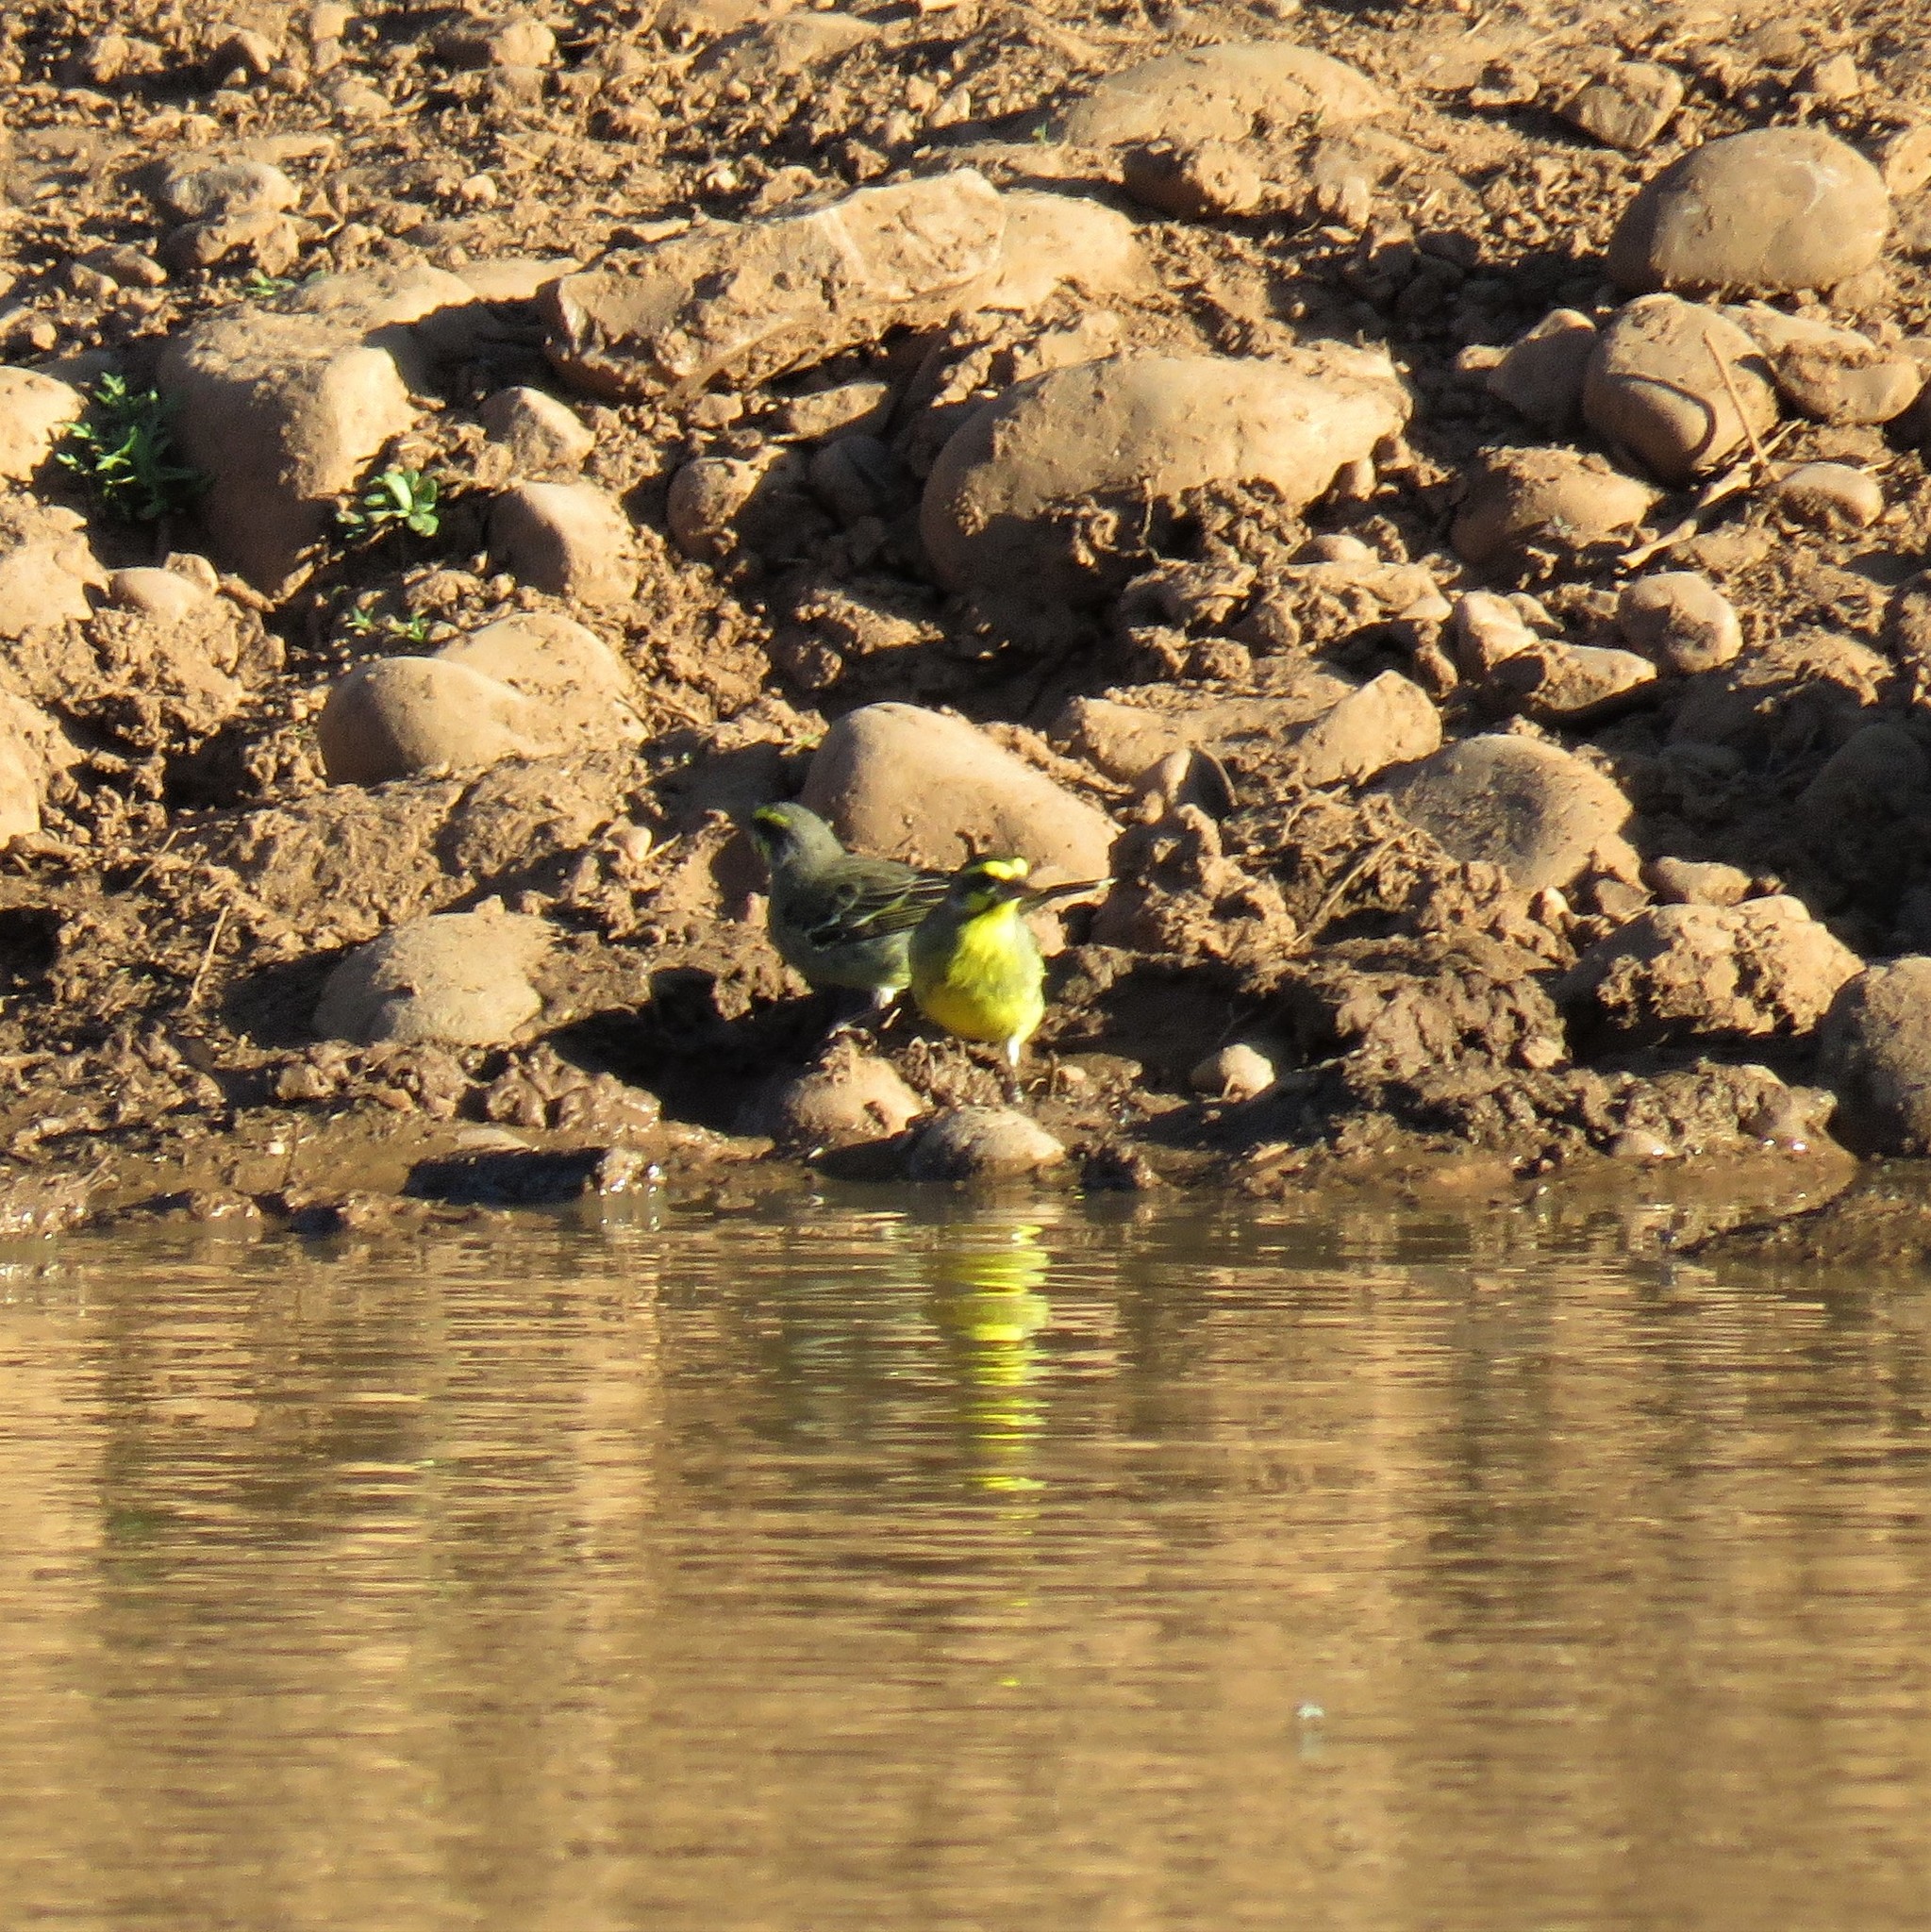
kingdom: Animalia
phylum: Chordata
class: Aves
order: Passeriformes
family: Fringillidae
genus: Crithagra
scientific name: Crithagra mozambica
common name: Yellow-fronted canary
